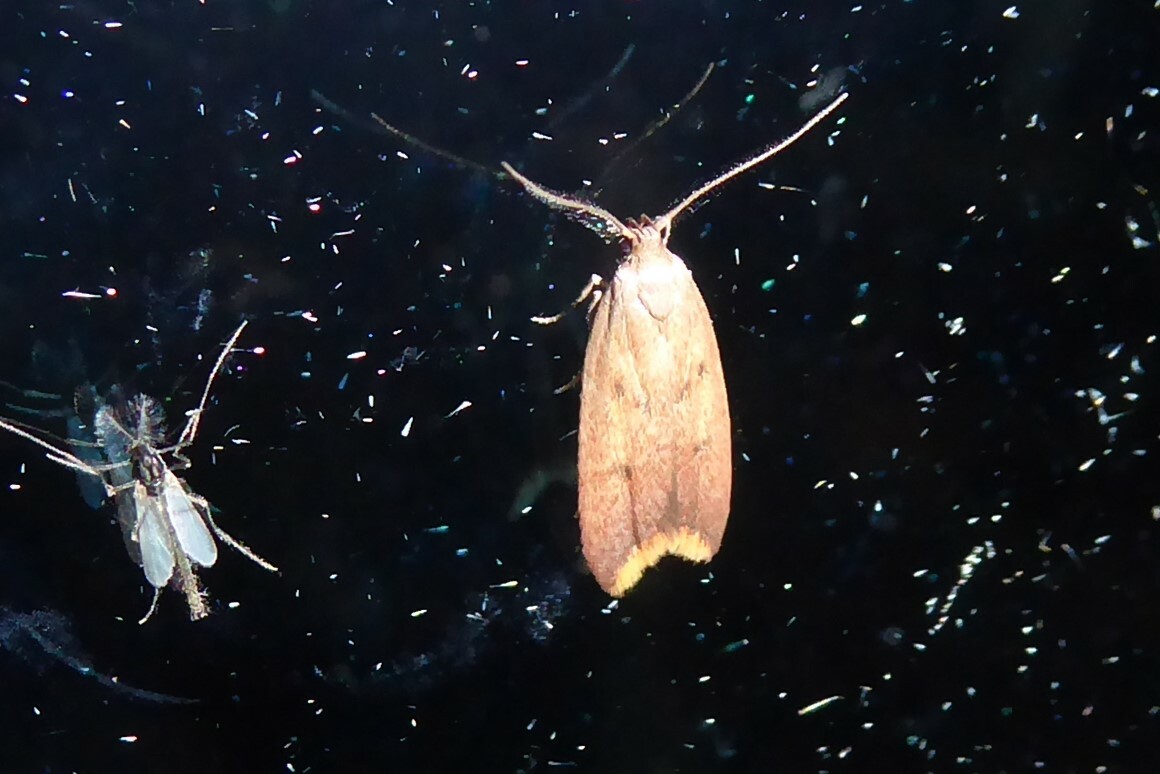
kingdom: Animalia
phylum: Arthropoda
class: Insecta
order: Lepidoptera
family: Oecophoridae
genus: Tachystola
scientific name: Tachystola acroxantha
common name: Ruddy streak
